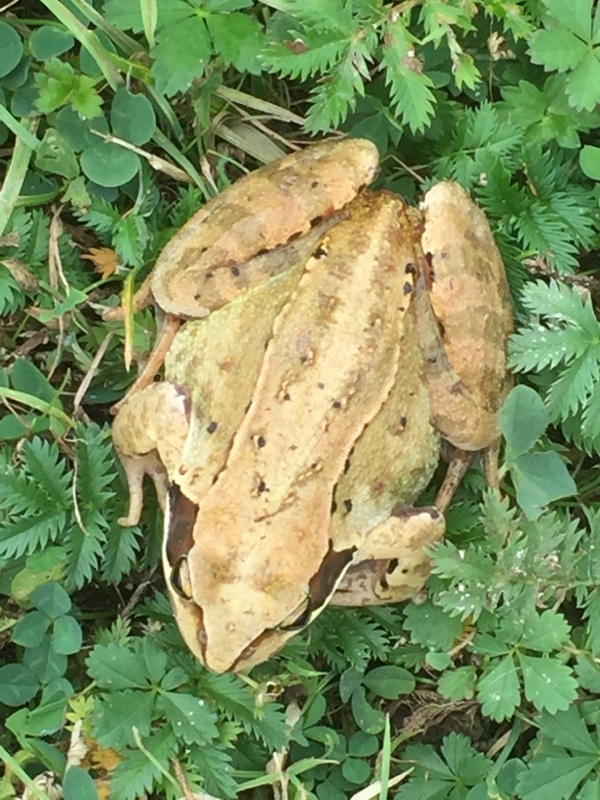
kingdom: Animalia
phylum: Chordata
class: Amphibia
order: Anura
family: Ranidae
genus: Rana
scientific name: Rana temporaria
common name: Common frog
